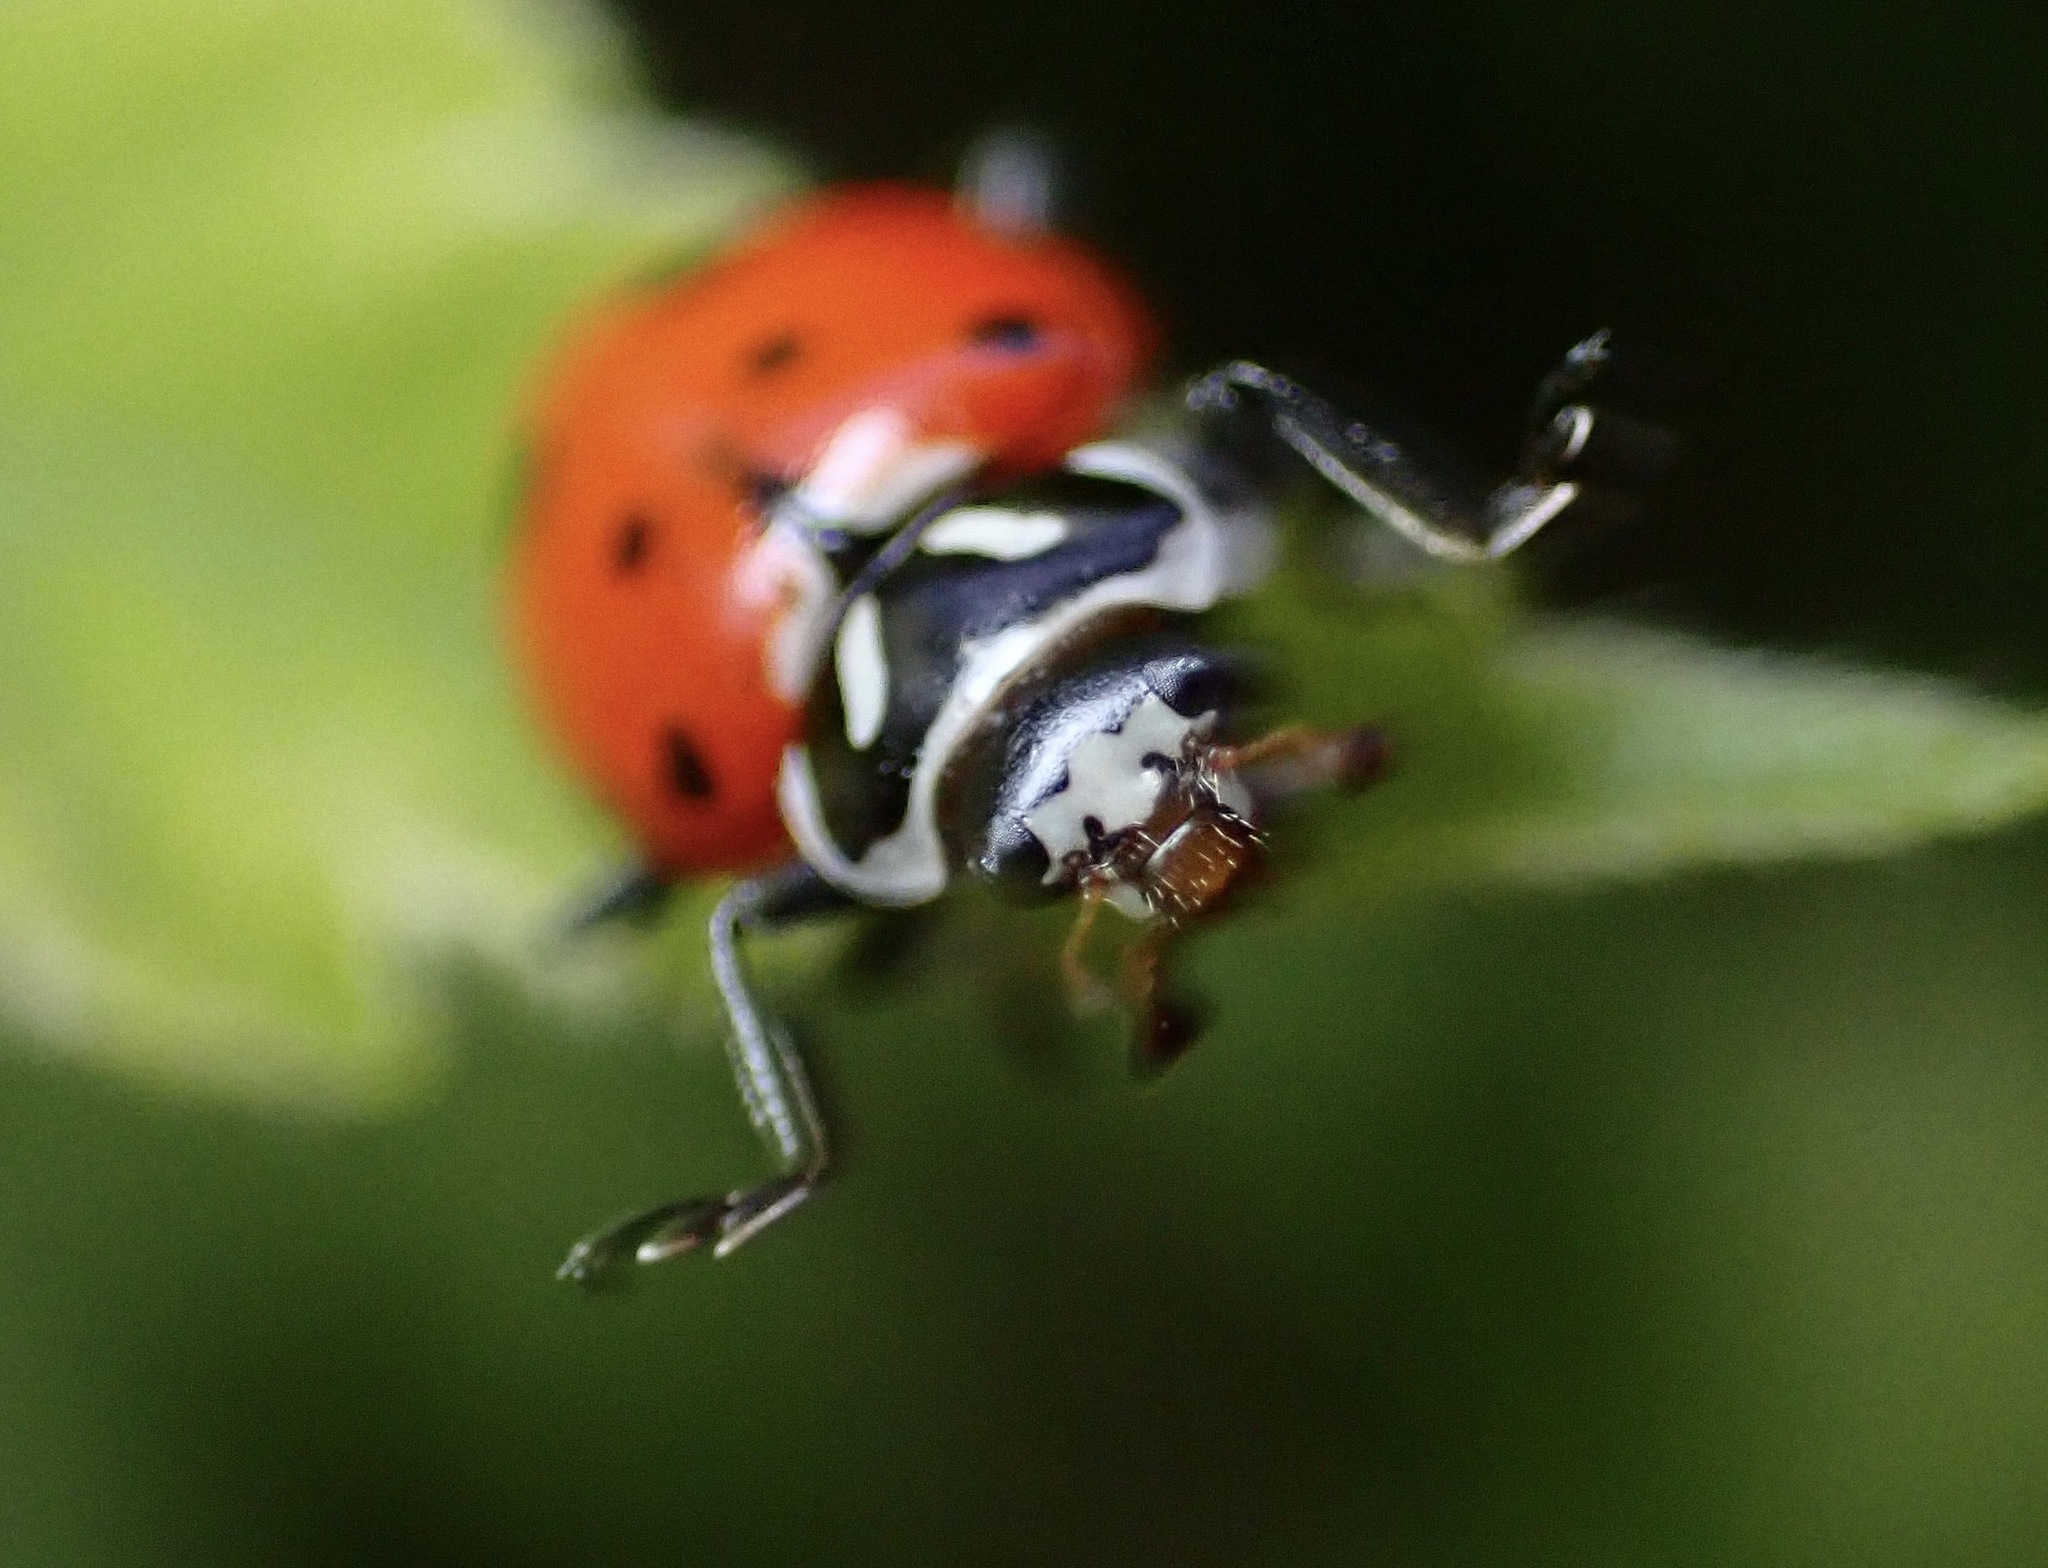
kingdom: Animalia
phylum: Arthropoda
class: Insecta
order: Coleoptera
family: Coccinellidae
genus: Hippodamia
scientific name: Hippodamia convergens
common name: Convergent lady beetle
